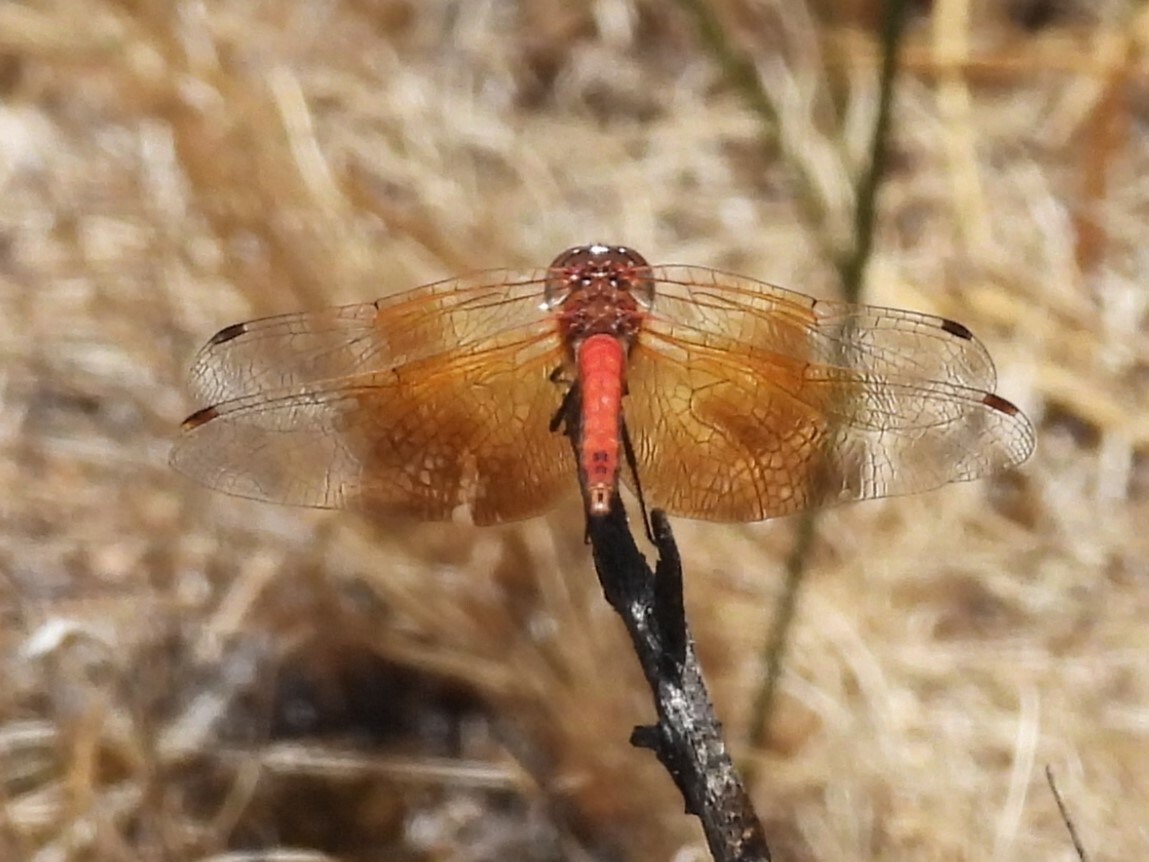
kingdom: Animalia
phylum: Arthropoda
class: Insecta
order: Odonata
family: Libellulidae
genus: Sympetrum
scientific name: Sympetrum semicinctum
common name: Band-winged meadowhawk
